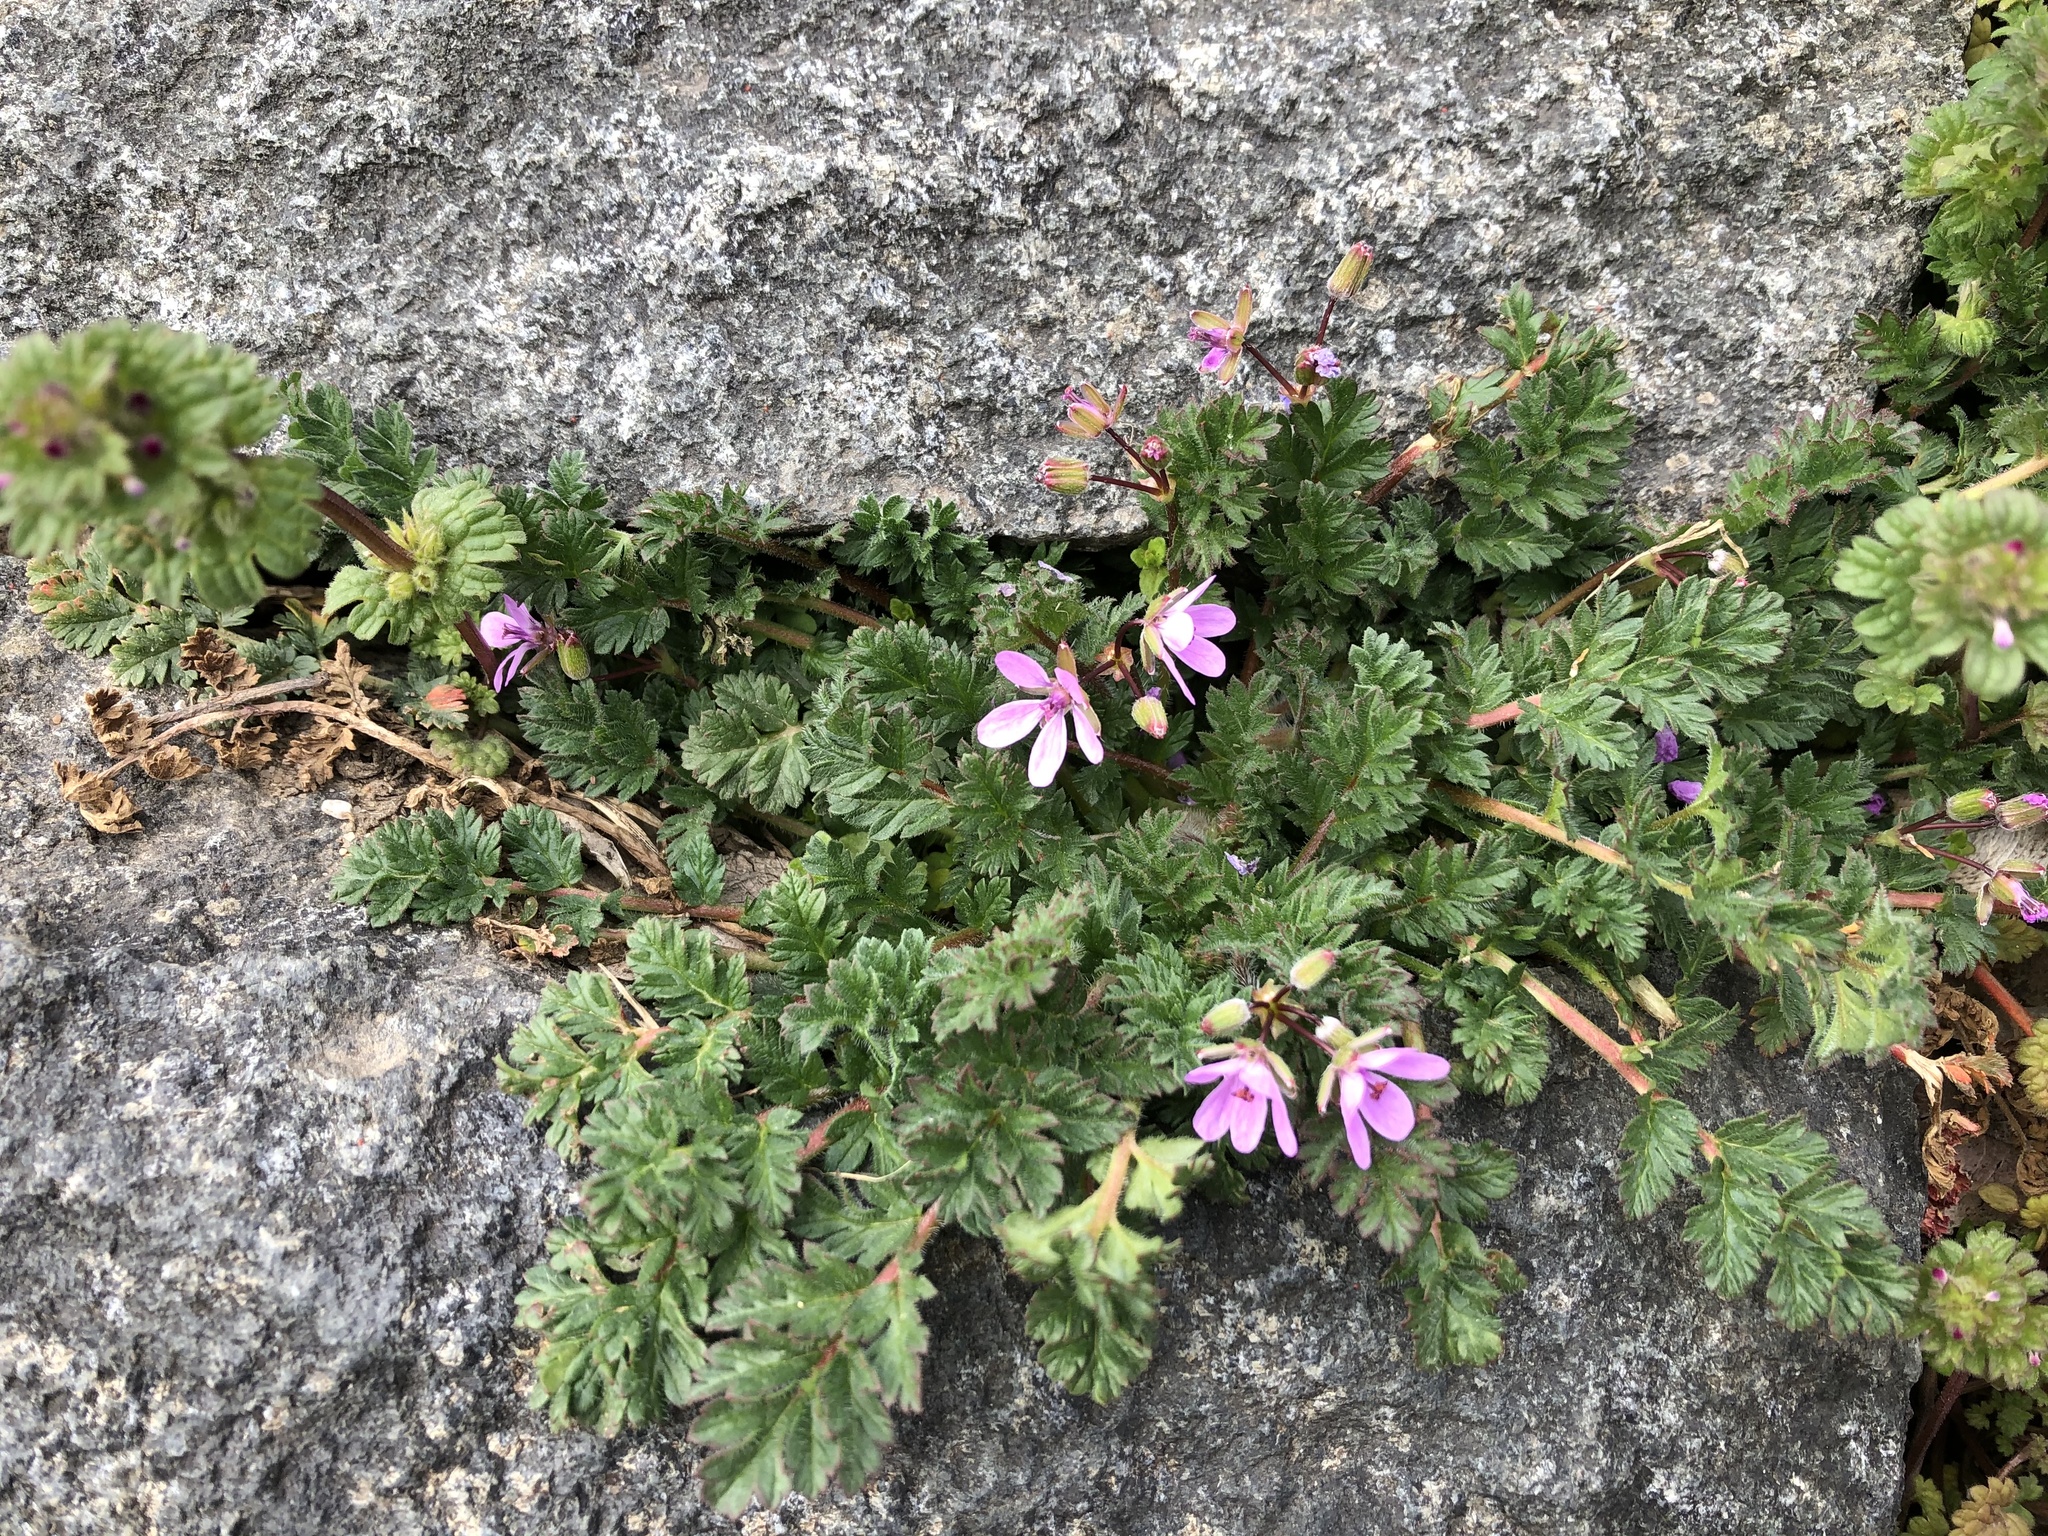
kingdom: Plantae
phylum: Tracheophyta
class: Magnoliopsida
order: Geraniales
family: Geraniaceae
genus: Erodium
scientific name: Erodium cicutarium
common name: Common stork's-bill
